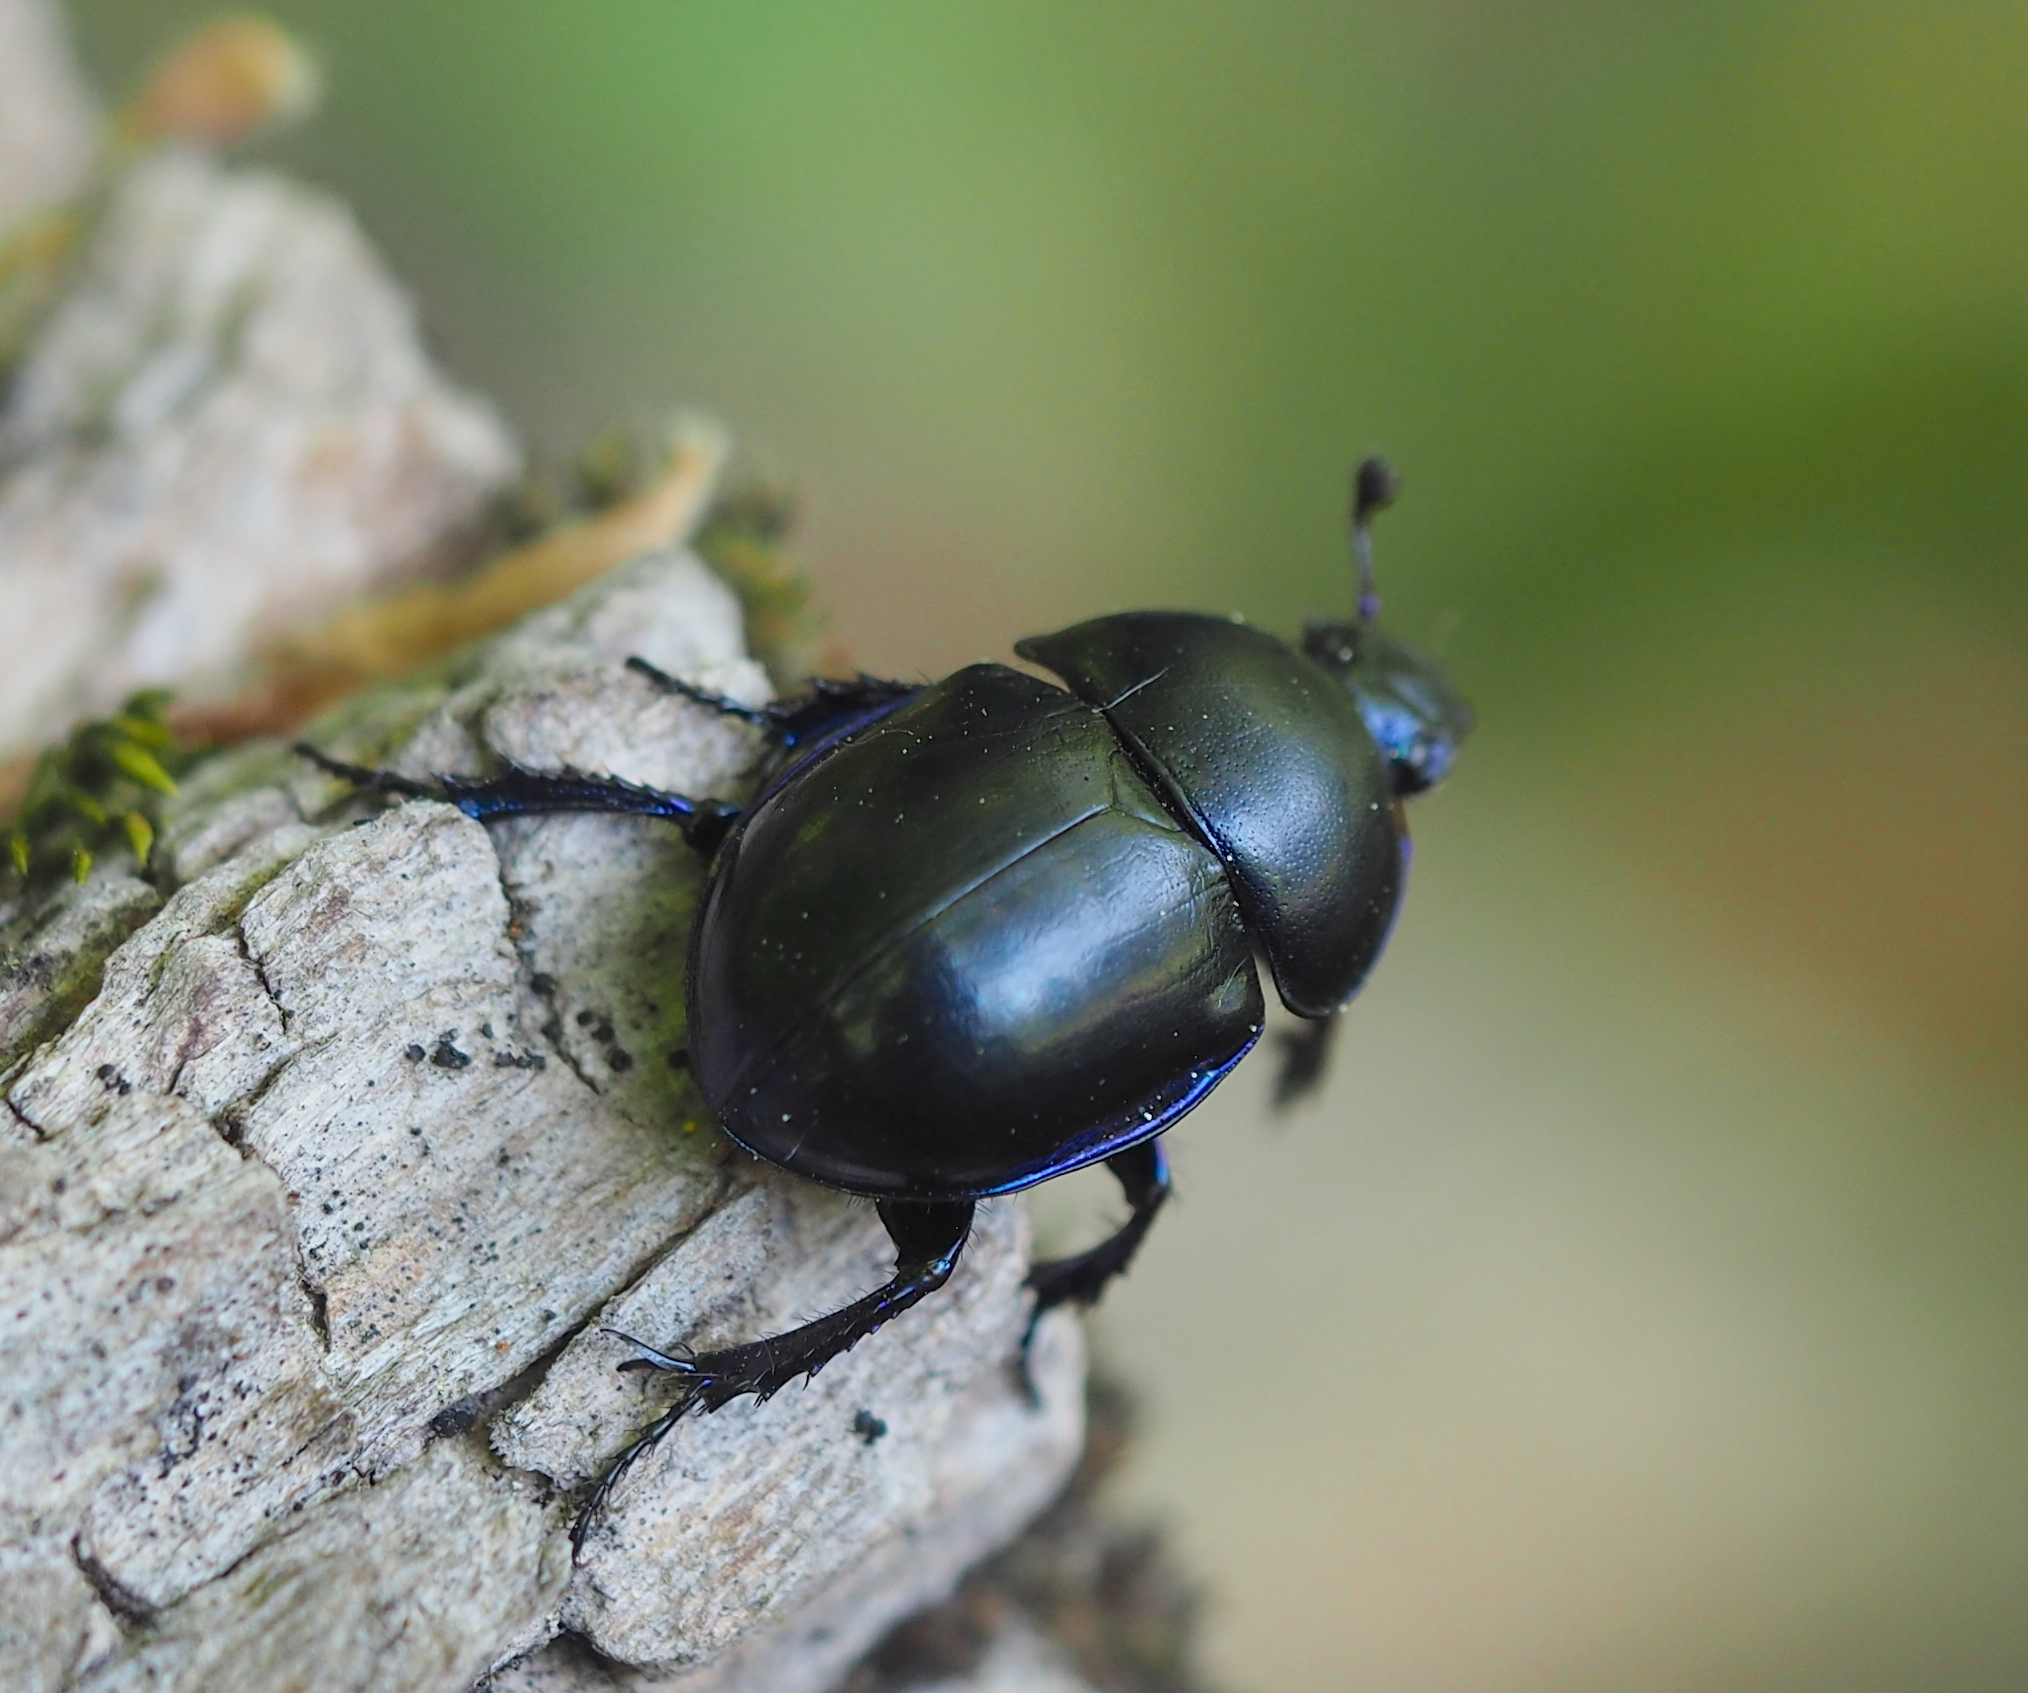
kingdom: Animalia
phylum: Arthropoda
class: Insecta
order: Coleoptera
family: Geotrupidae
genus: Trypocopris
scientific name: Trypocopris vernalis
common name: Spring dumbledor
